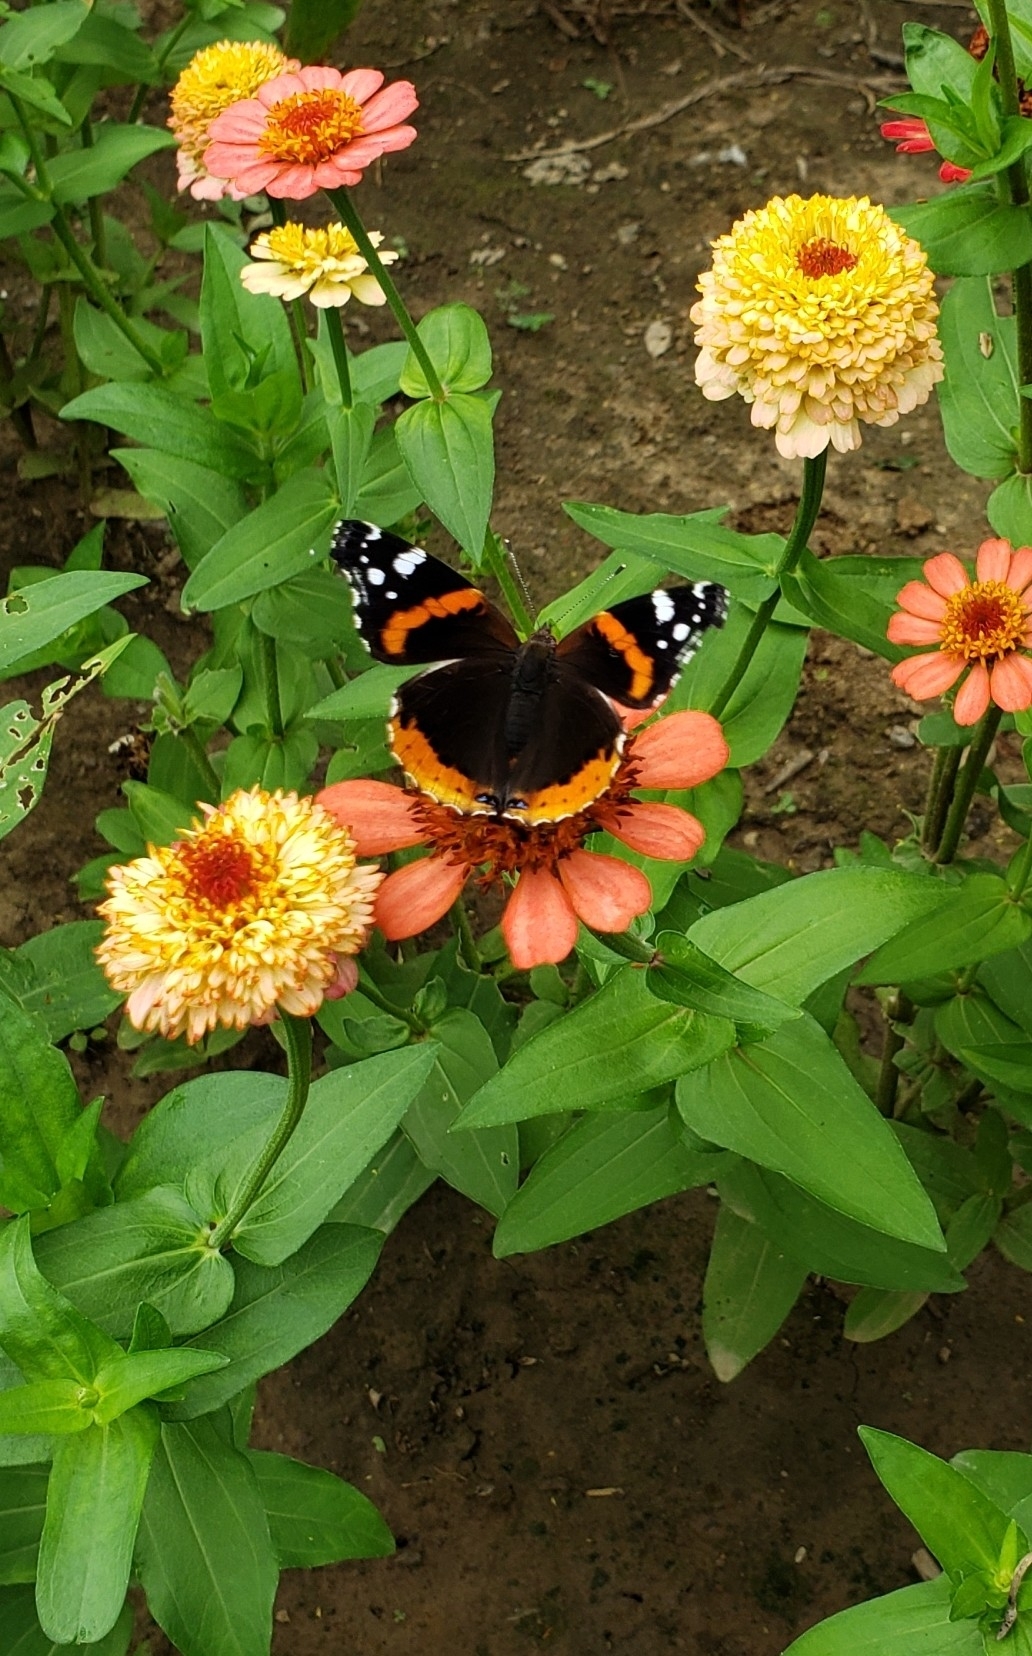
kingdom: Animalia
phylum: Arthropoda
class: Insecta
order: Lepidoptera
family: Nymphalidae
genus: Vanessa
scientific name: Vanessa atalanta
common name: Red admiral
